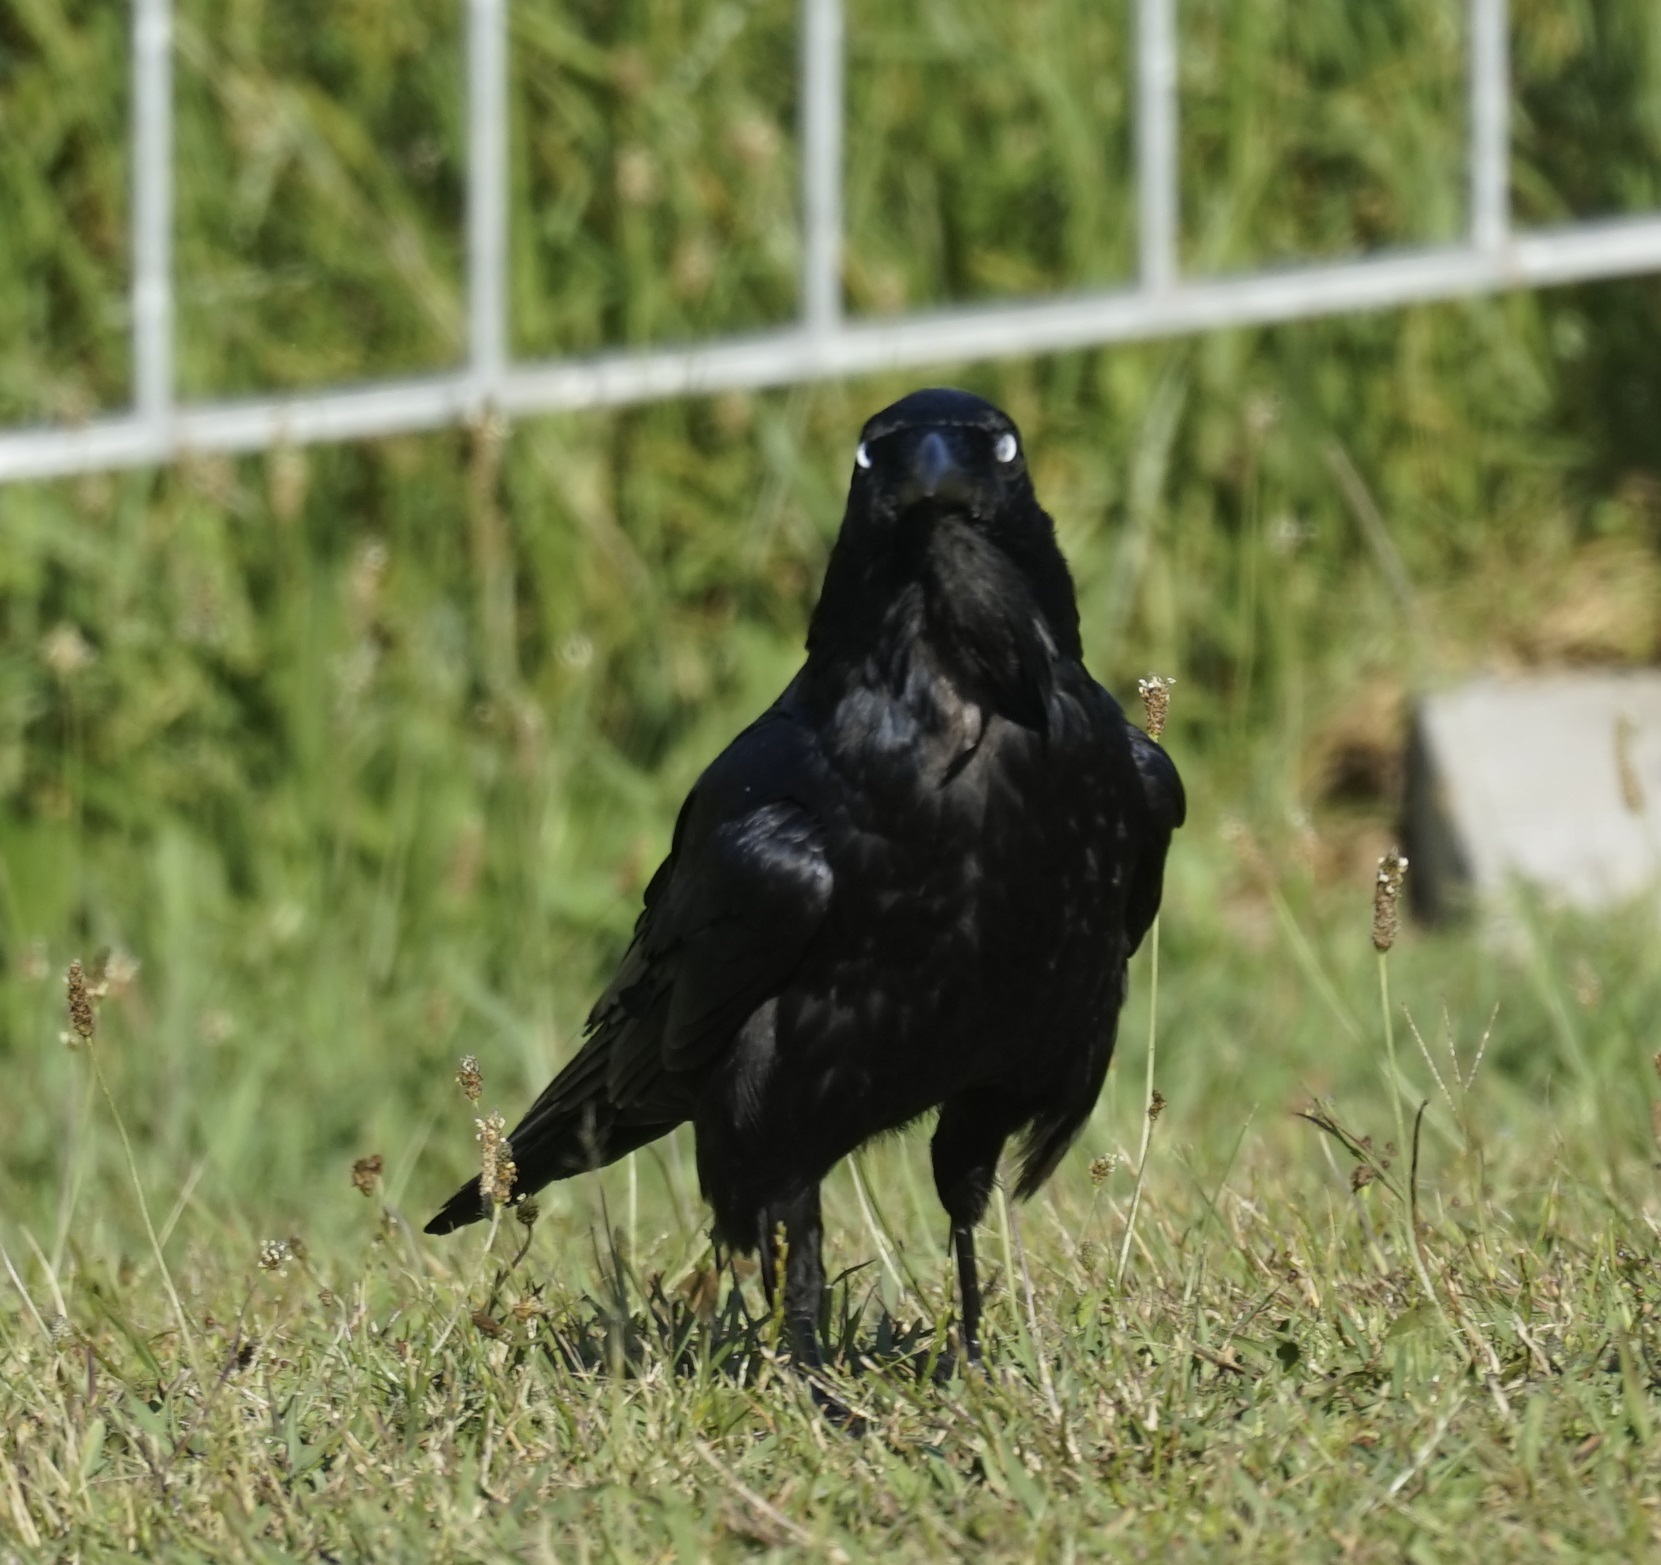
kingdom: Animalia
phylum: Chordata
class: Aves
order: Passeriformes
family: Corvidae
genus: Corvus
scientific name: Corvus coronoides
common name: Australian raven
